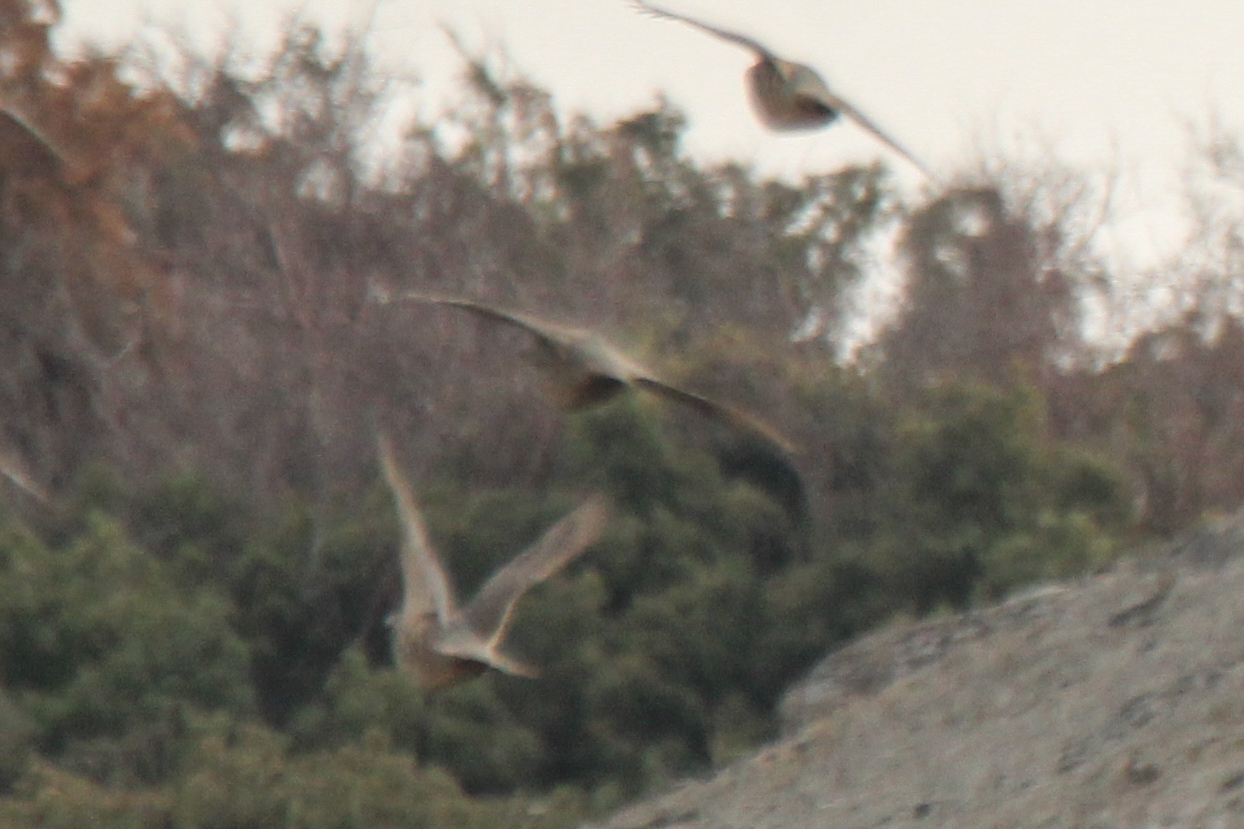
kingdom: Animalia
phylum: Chordata
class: Aves
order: Galliformes
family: Phasianidae
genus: Alectoris
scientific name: Alectoris chukar
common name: Chukar
